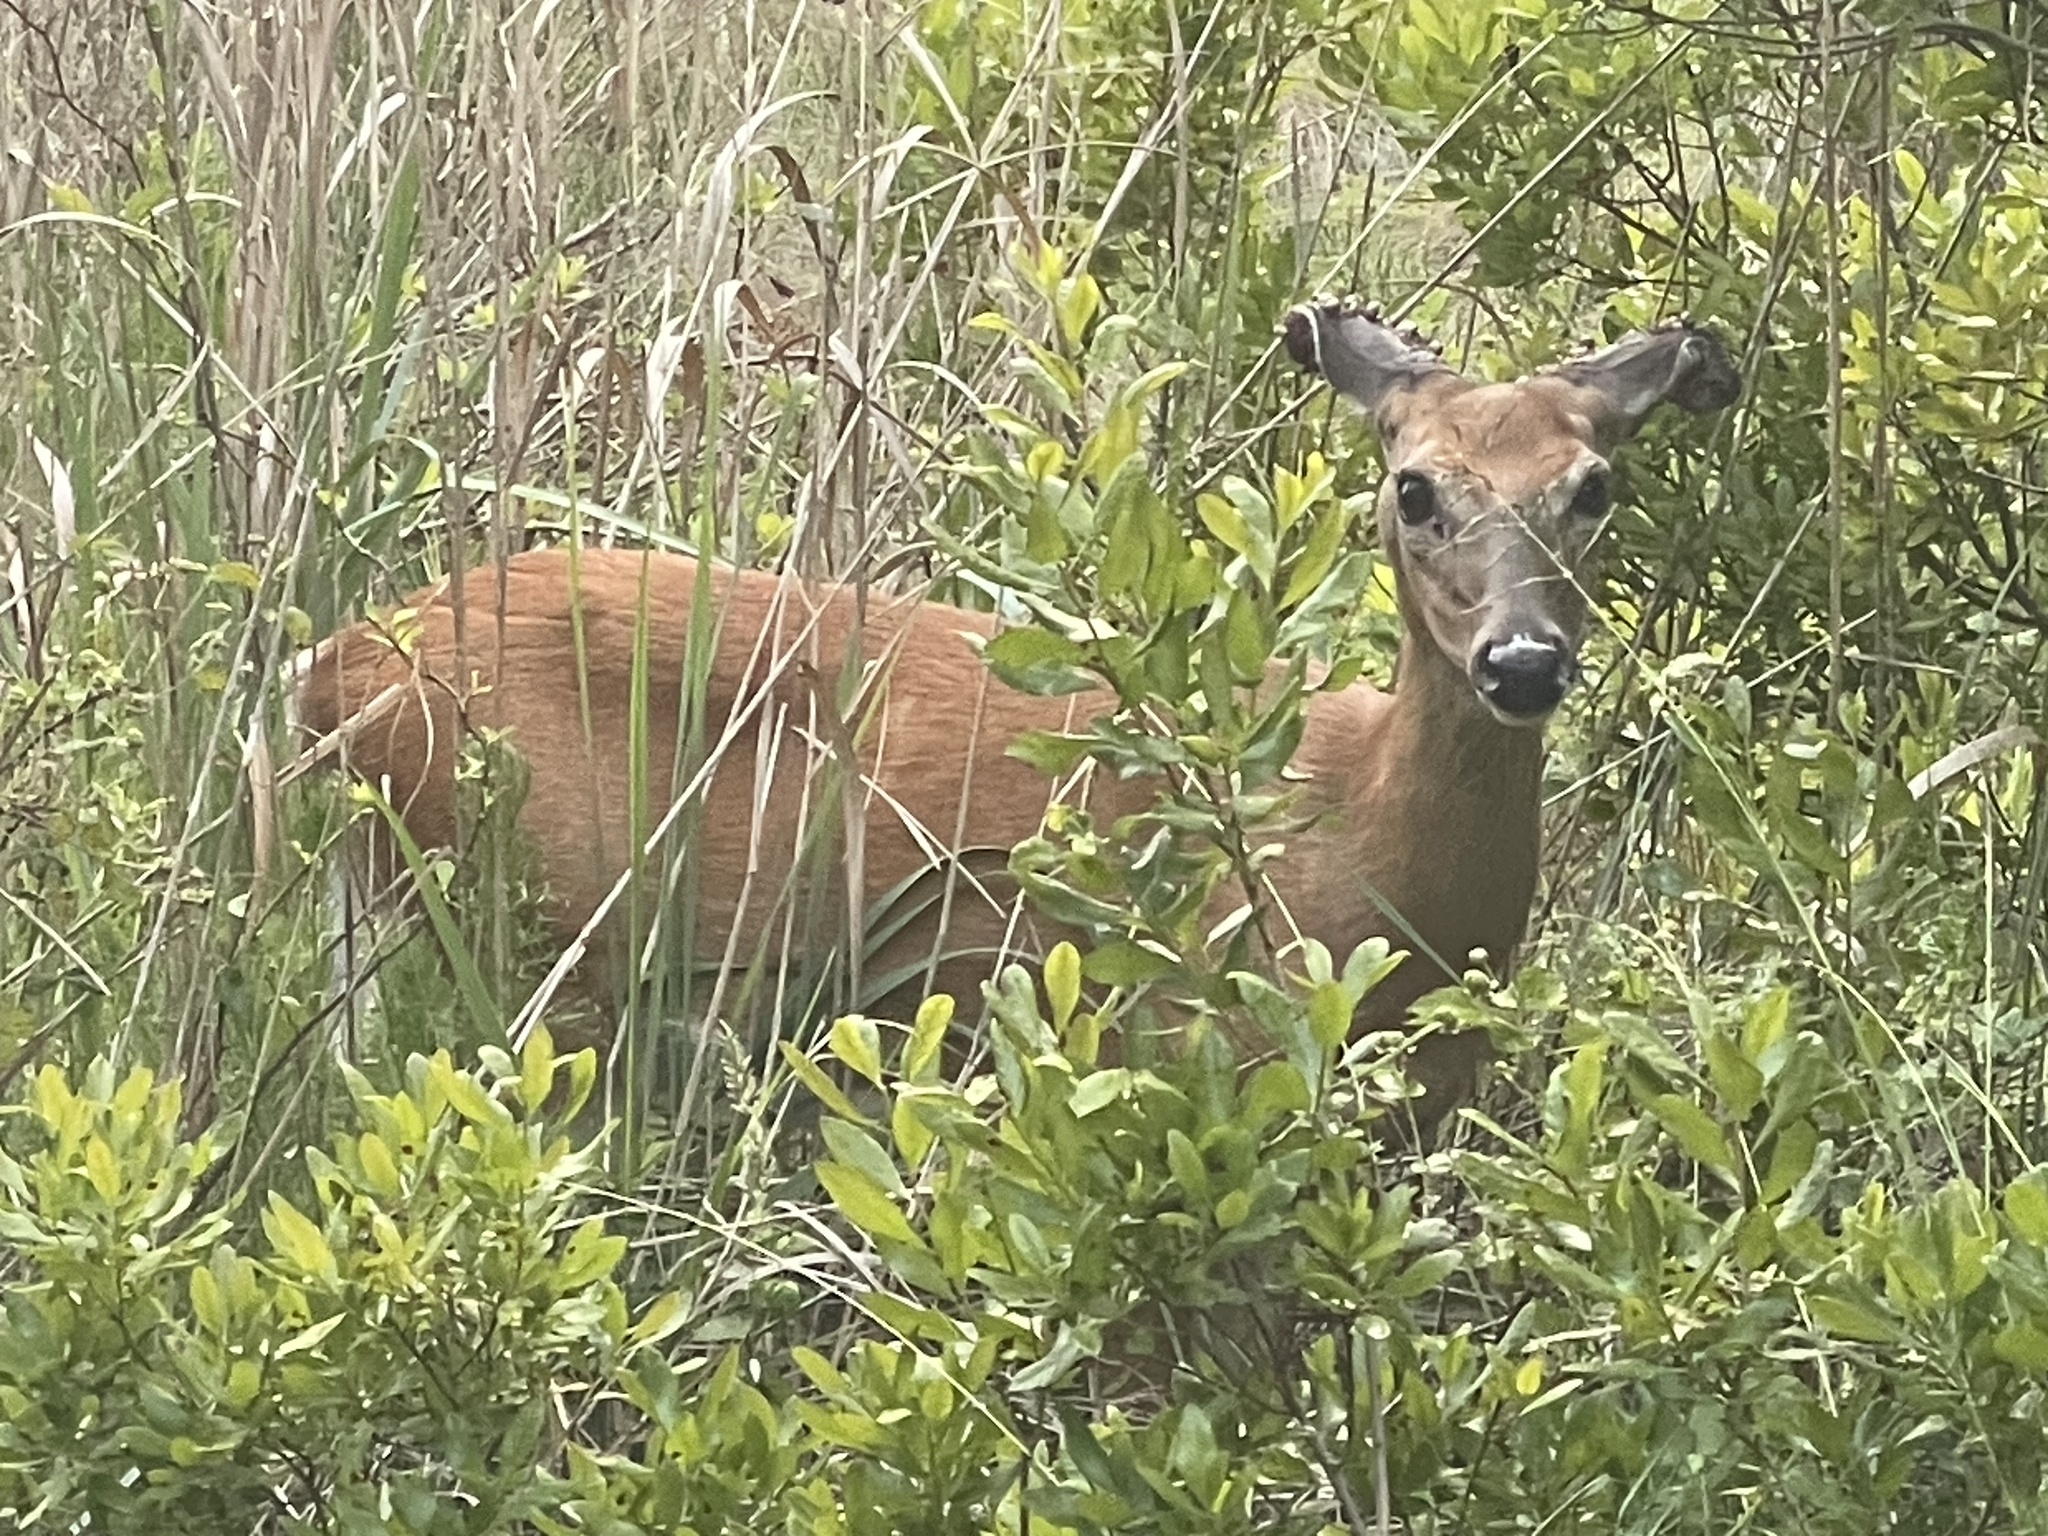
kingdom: Animalia
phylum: Chordata
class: Mammalia
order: Artiodactyla
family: Cervidae
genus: Odocoileus
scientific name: Odocoileus virginianus
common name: White-tailed deer
